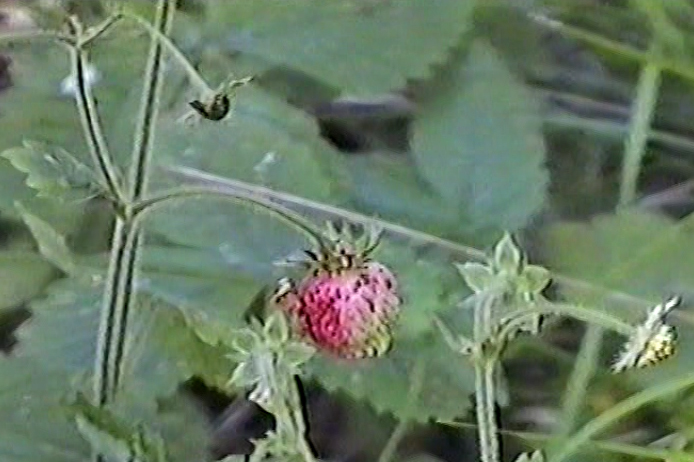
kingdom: Plantae
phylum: Tracheophyta
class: Magnoliopsida
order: Rosales
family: Rosaceae
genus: Fragaria
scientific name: Fragaria moschata
